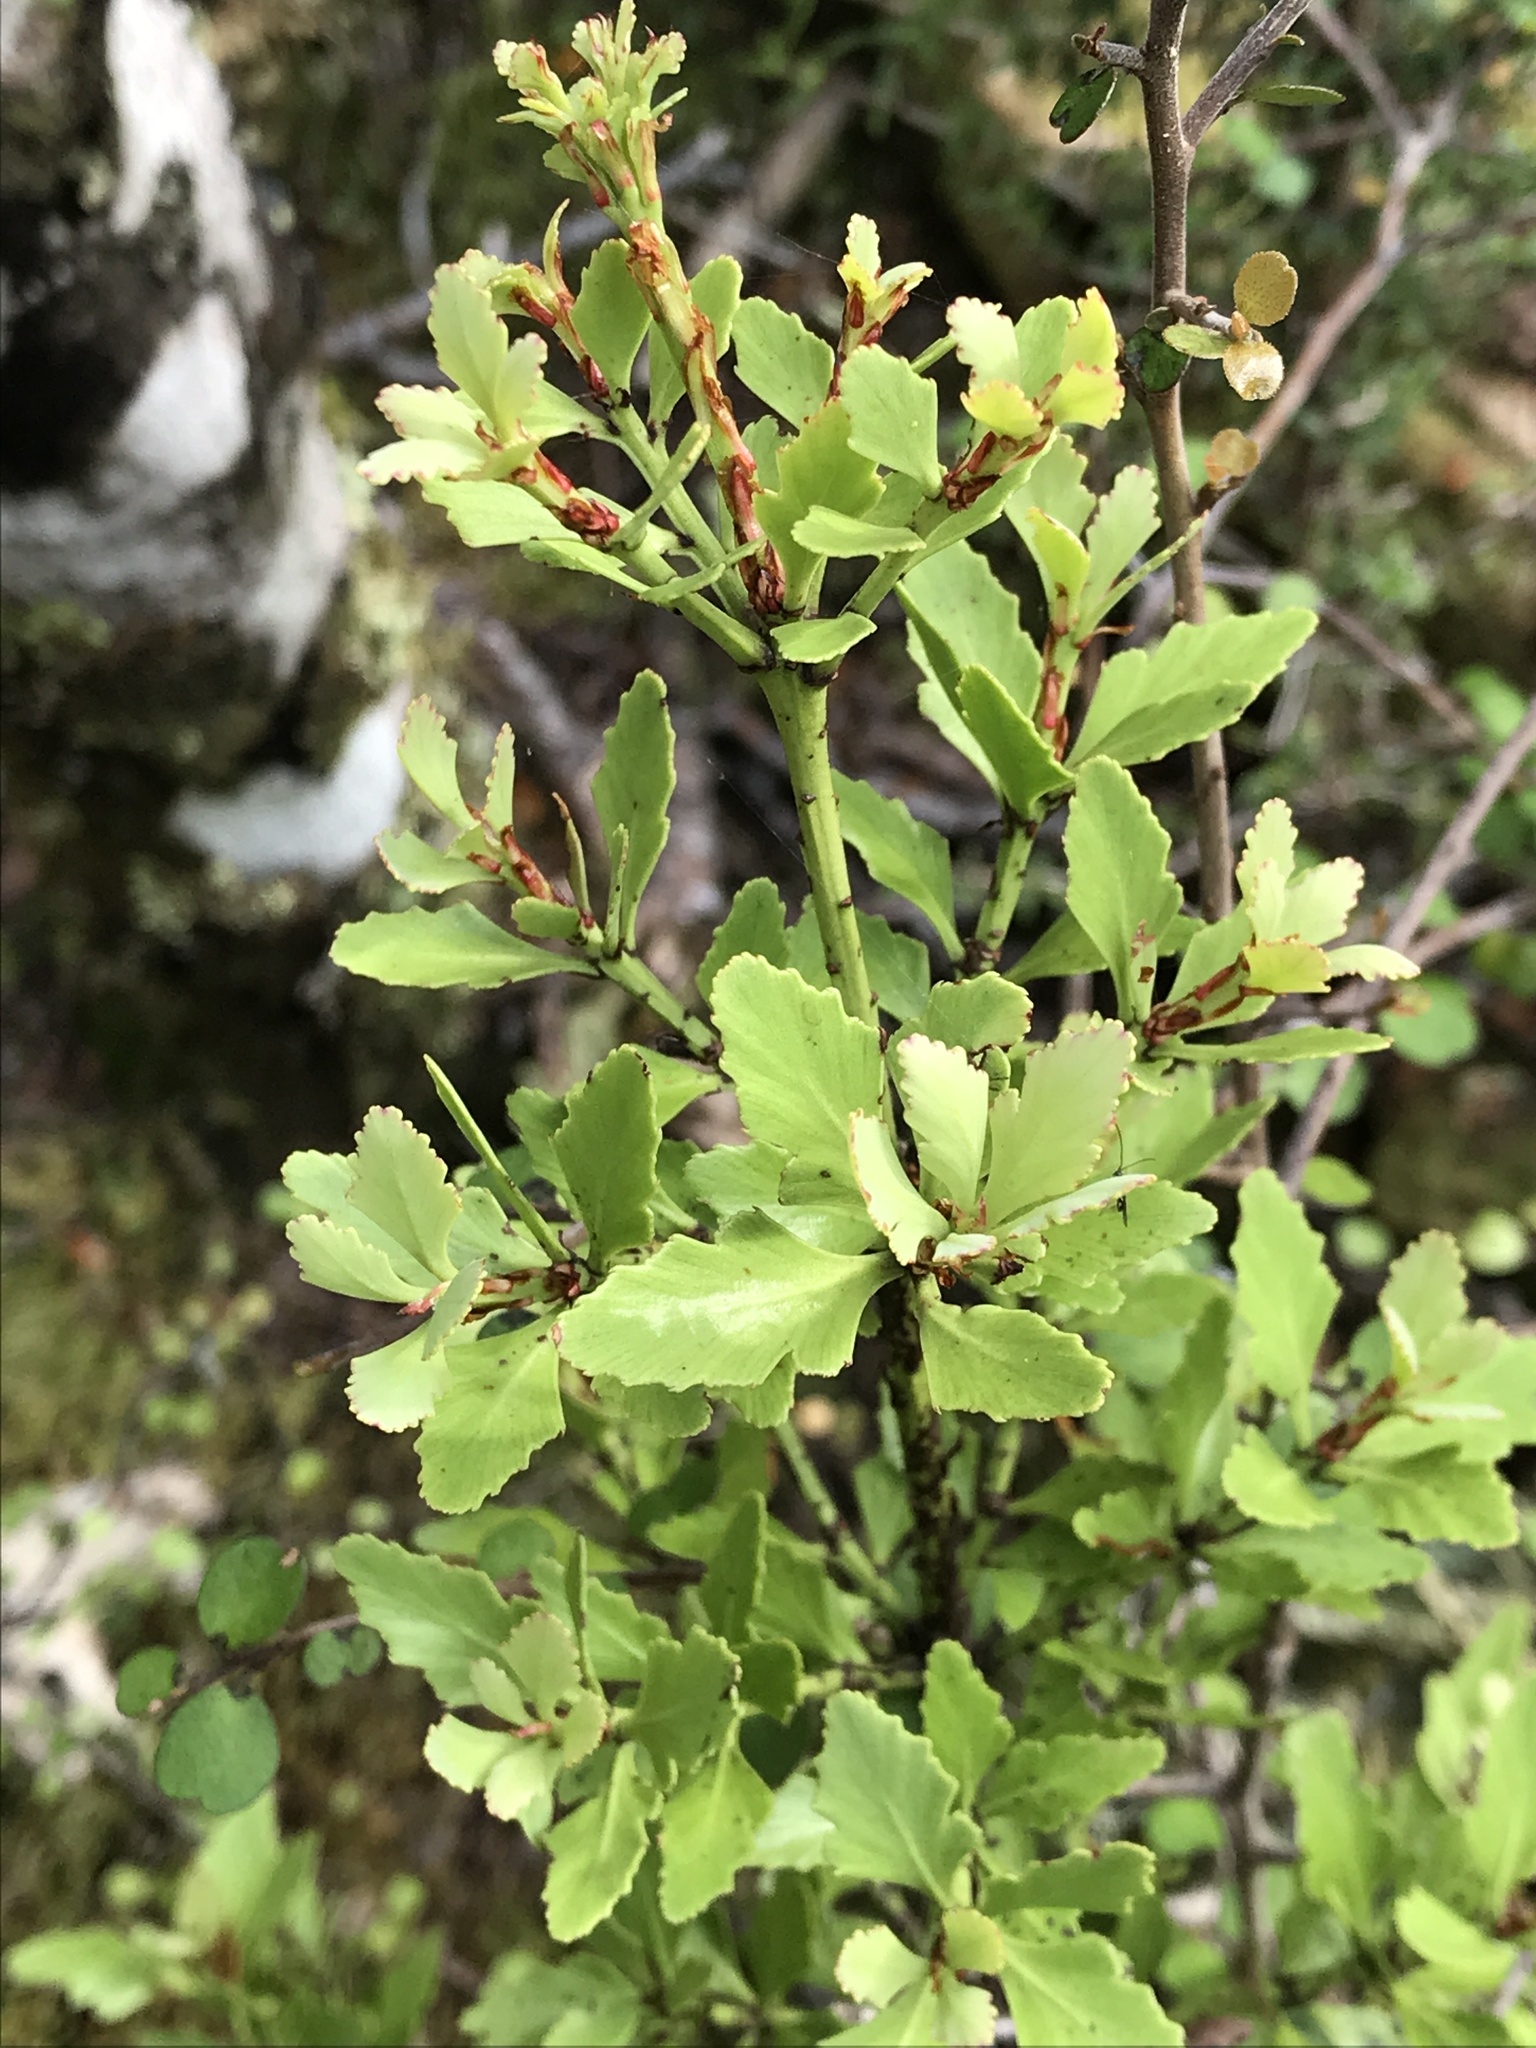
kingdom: Plantae
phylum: Tracheophyta
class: Pinopsida
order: Pinales
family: Phyllocladaceae
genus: Phyllocladus
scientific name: Phyllocladus trichomanoides
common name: Celery pine
